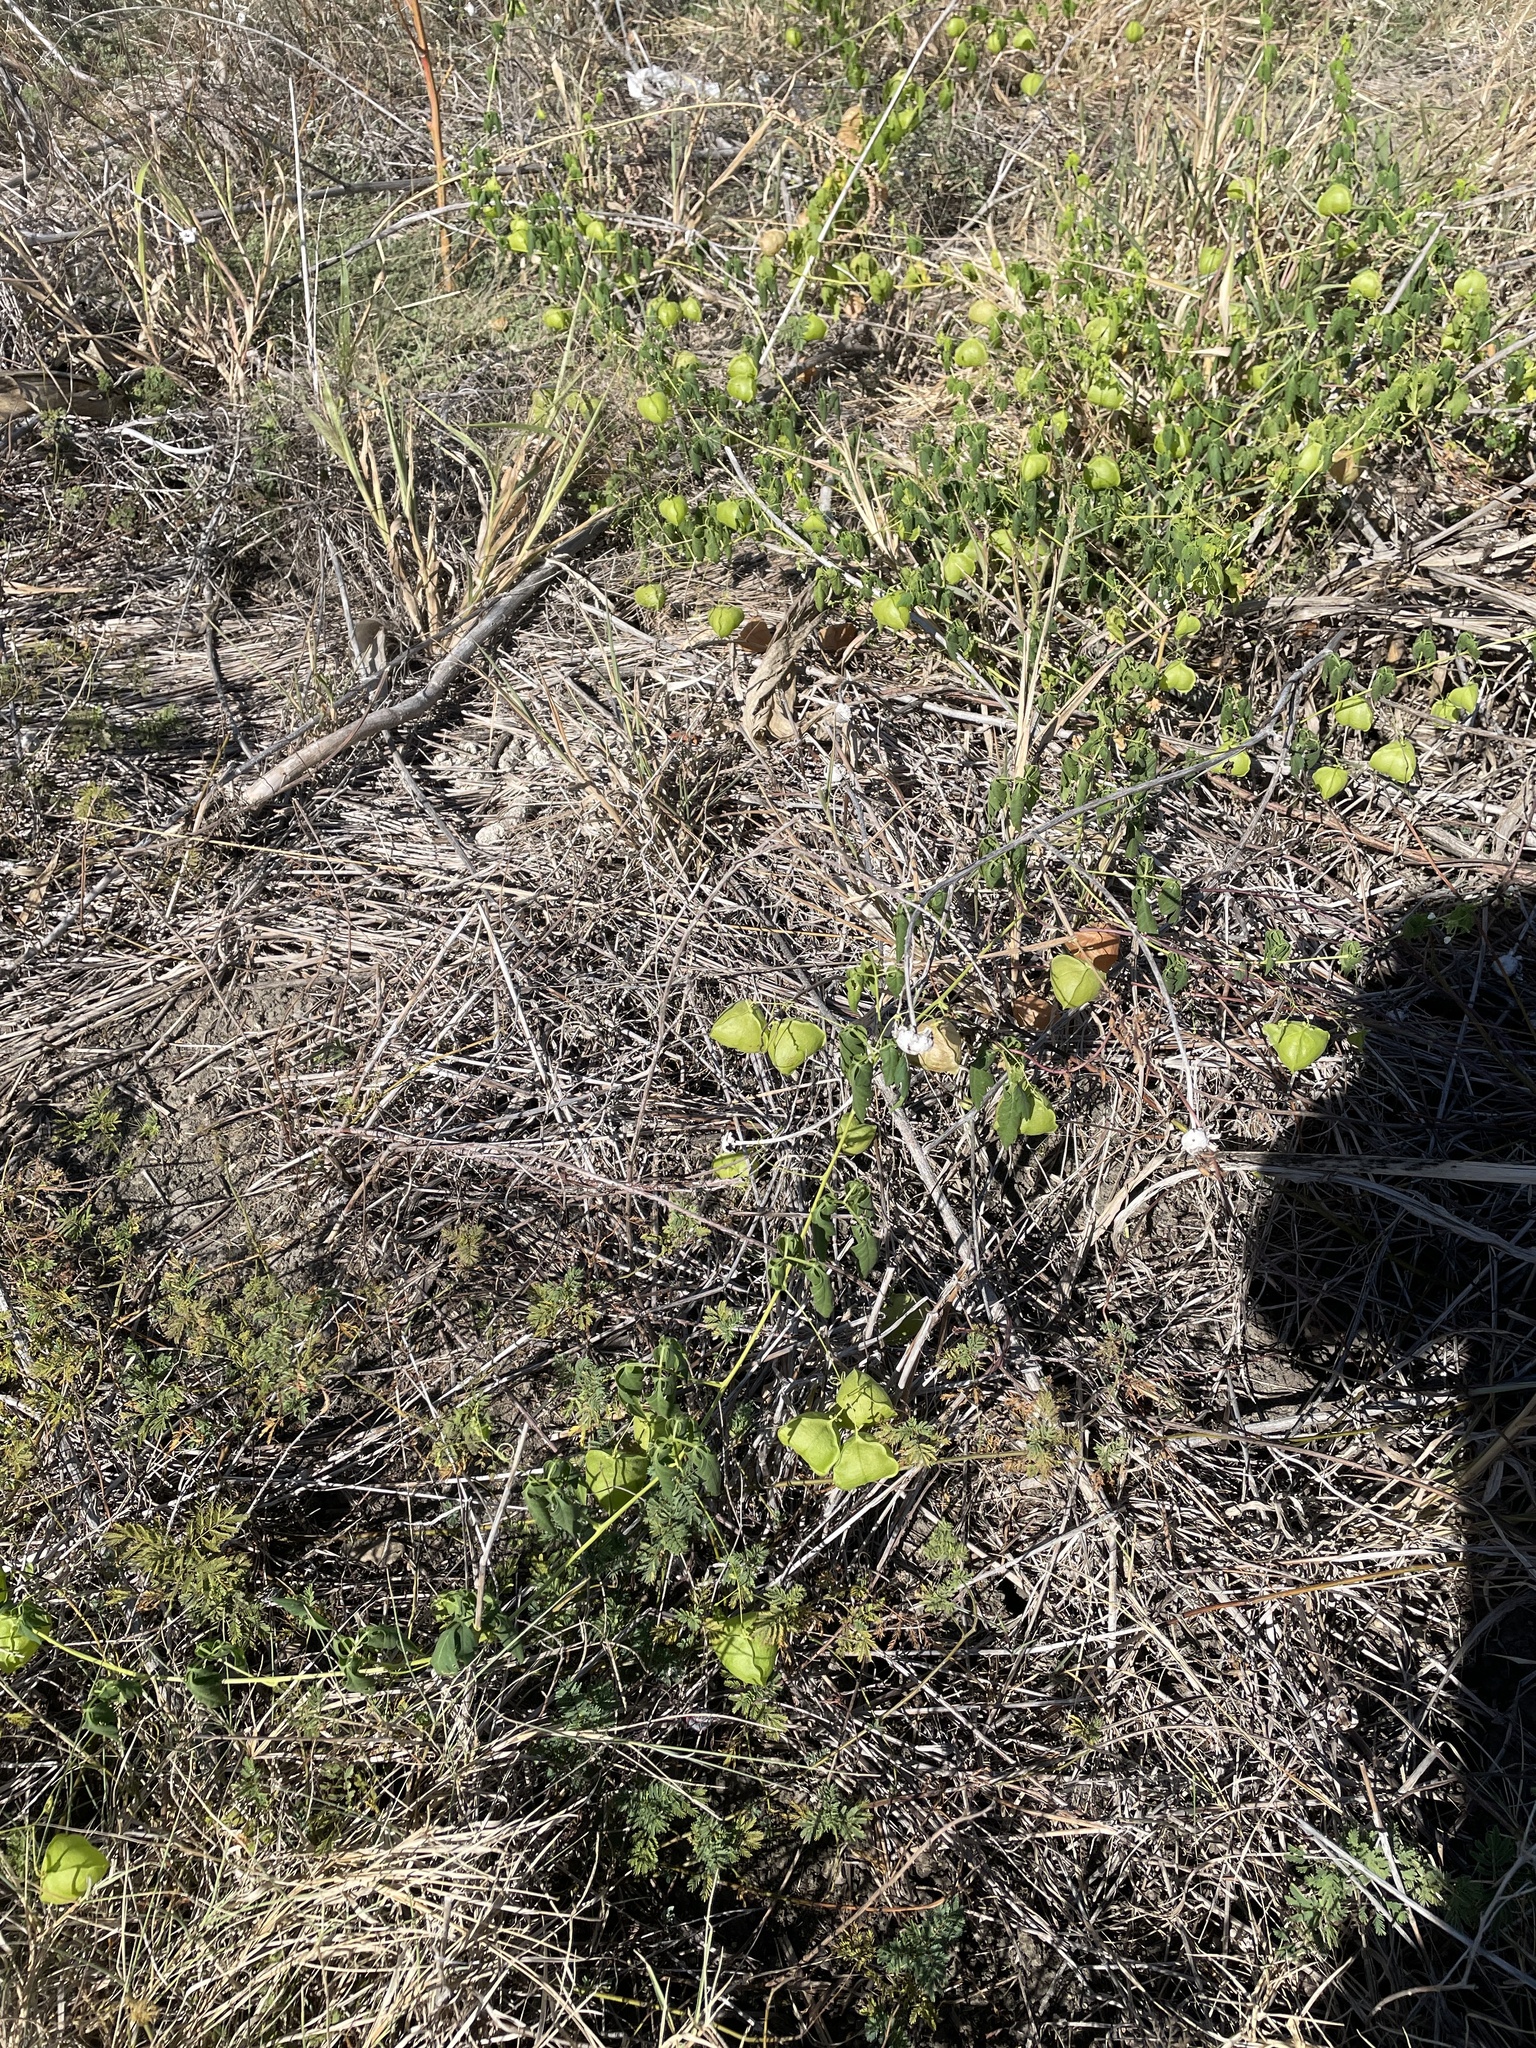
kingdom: Plantae
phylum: Tracheophyta
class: Magnoliopsida
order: Sapindales
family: Sapindaceae
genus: Cardiospermum
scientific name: Cardiospermum halicacabum
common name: Balloon vine
